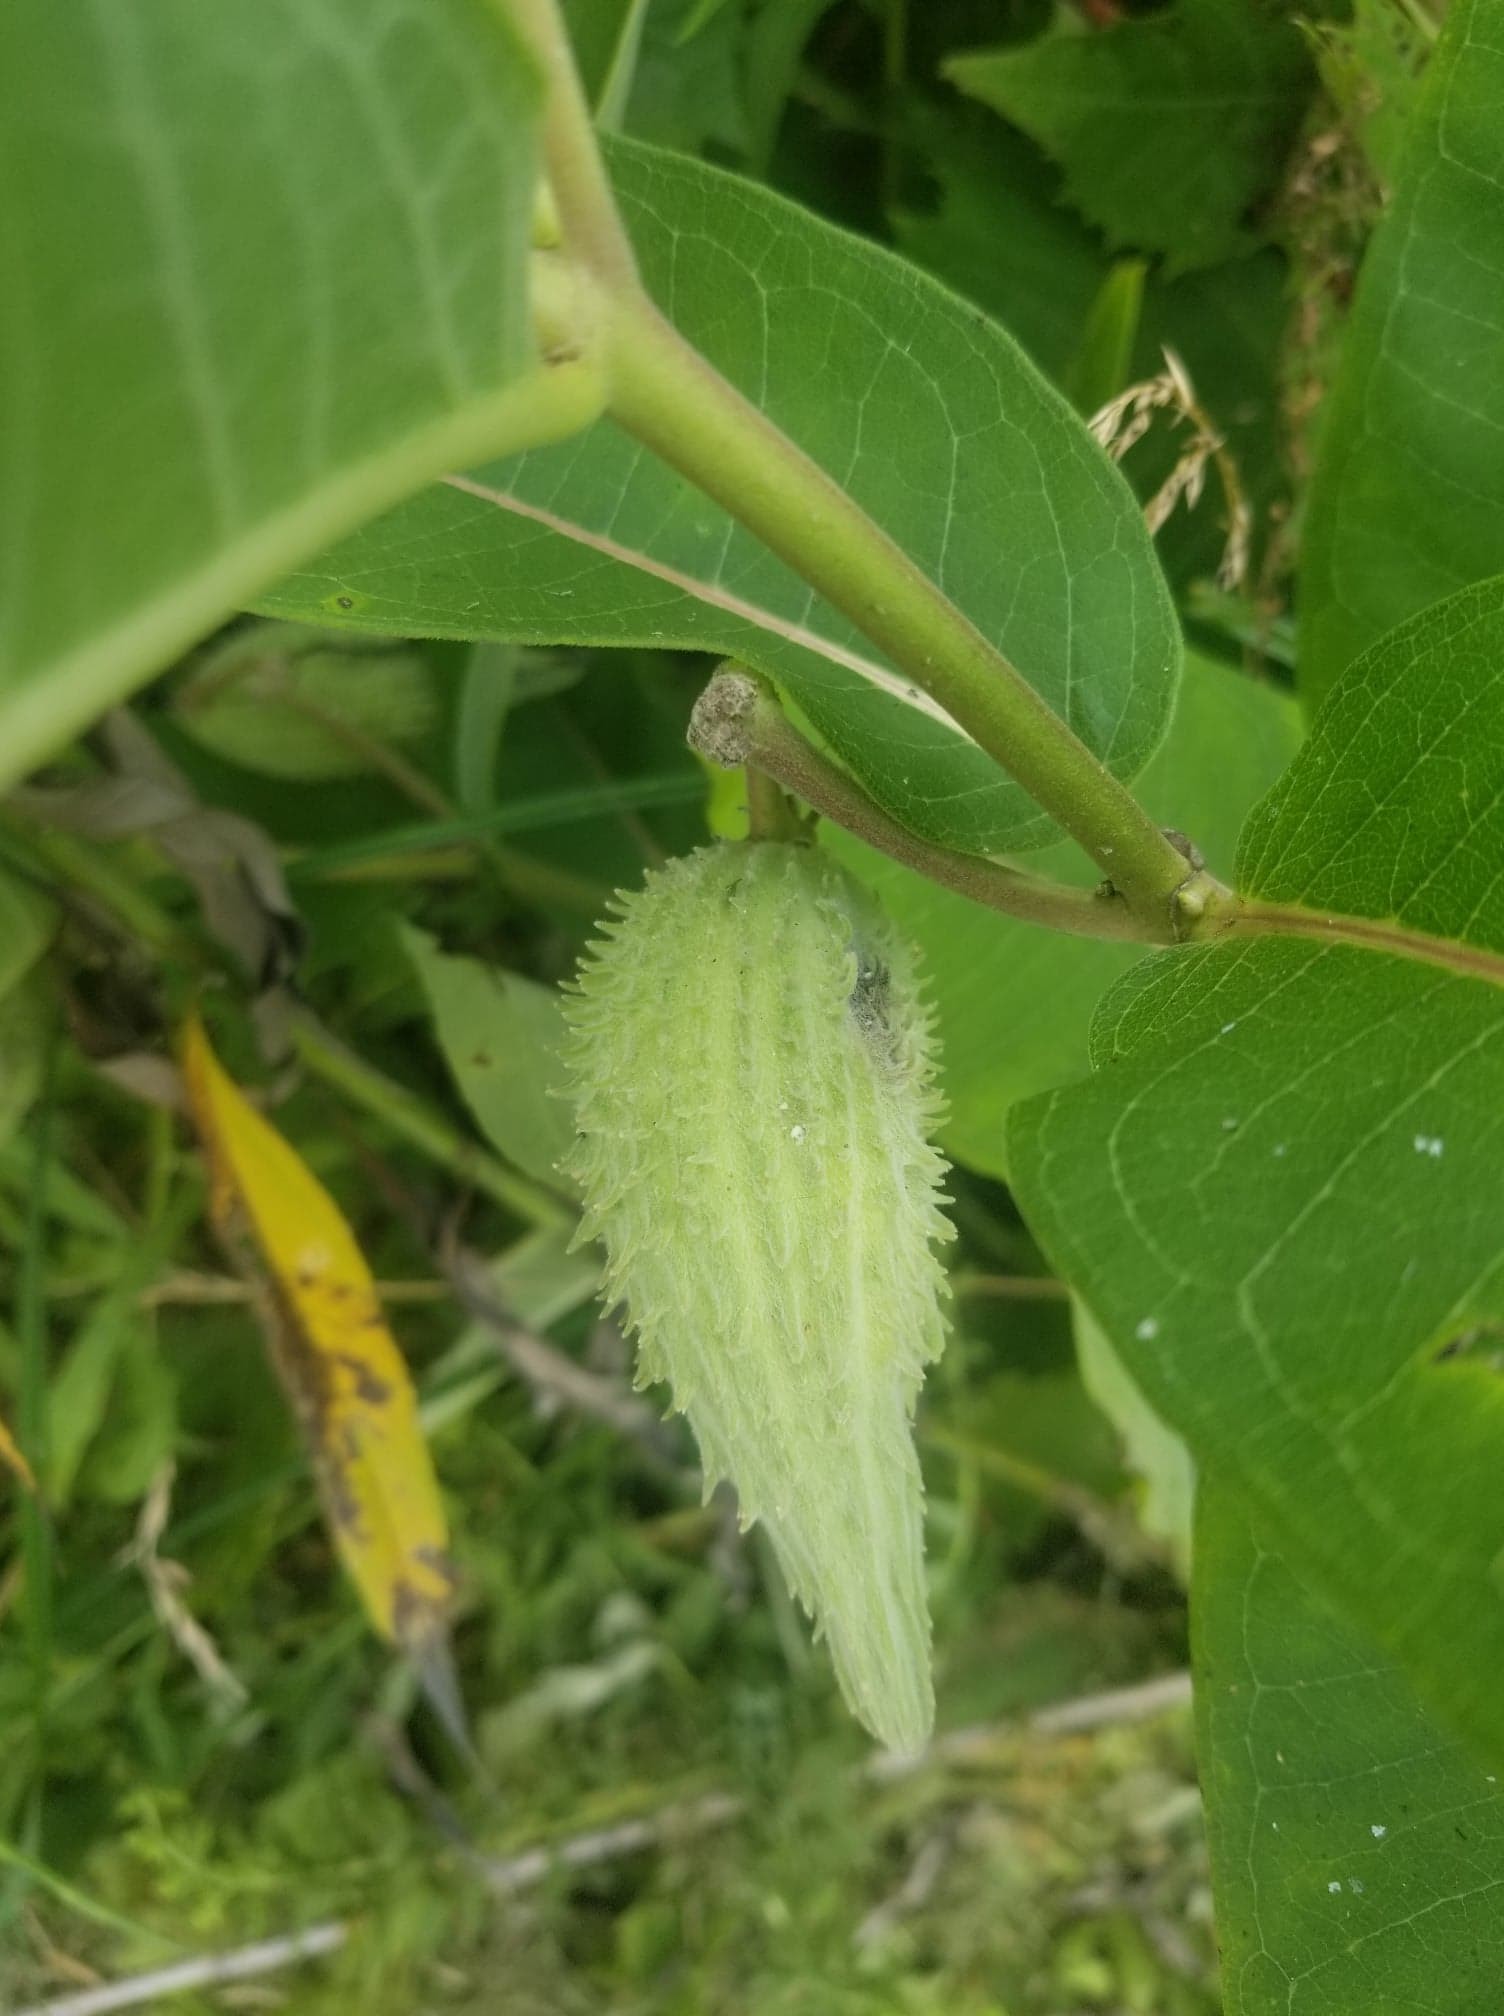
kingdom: Plantae
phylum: Tracheophyta
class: Magnoliopsida
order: Gentianales
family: Apocynaceae
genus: Asclepias
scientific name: Asclepias syriaca
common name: Common milkweed
